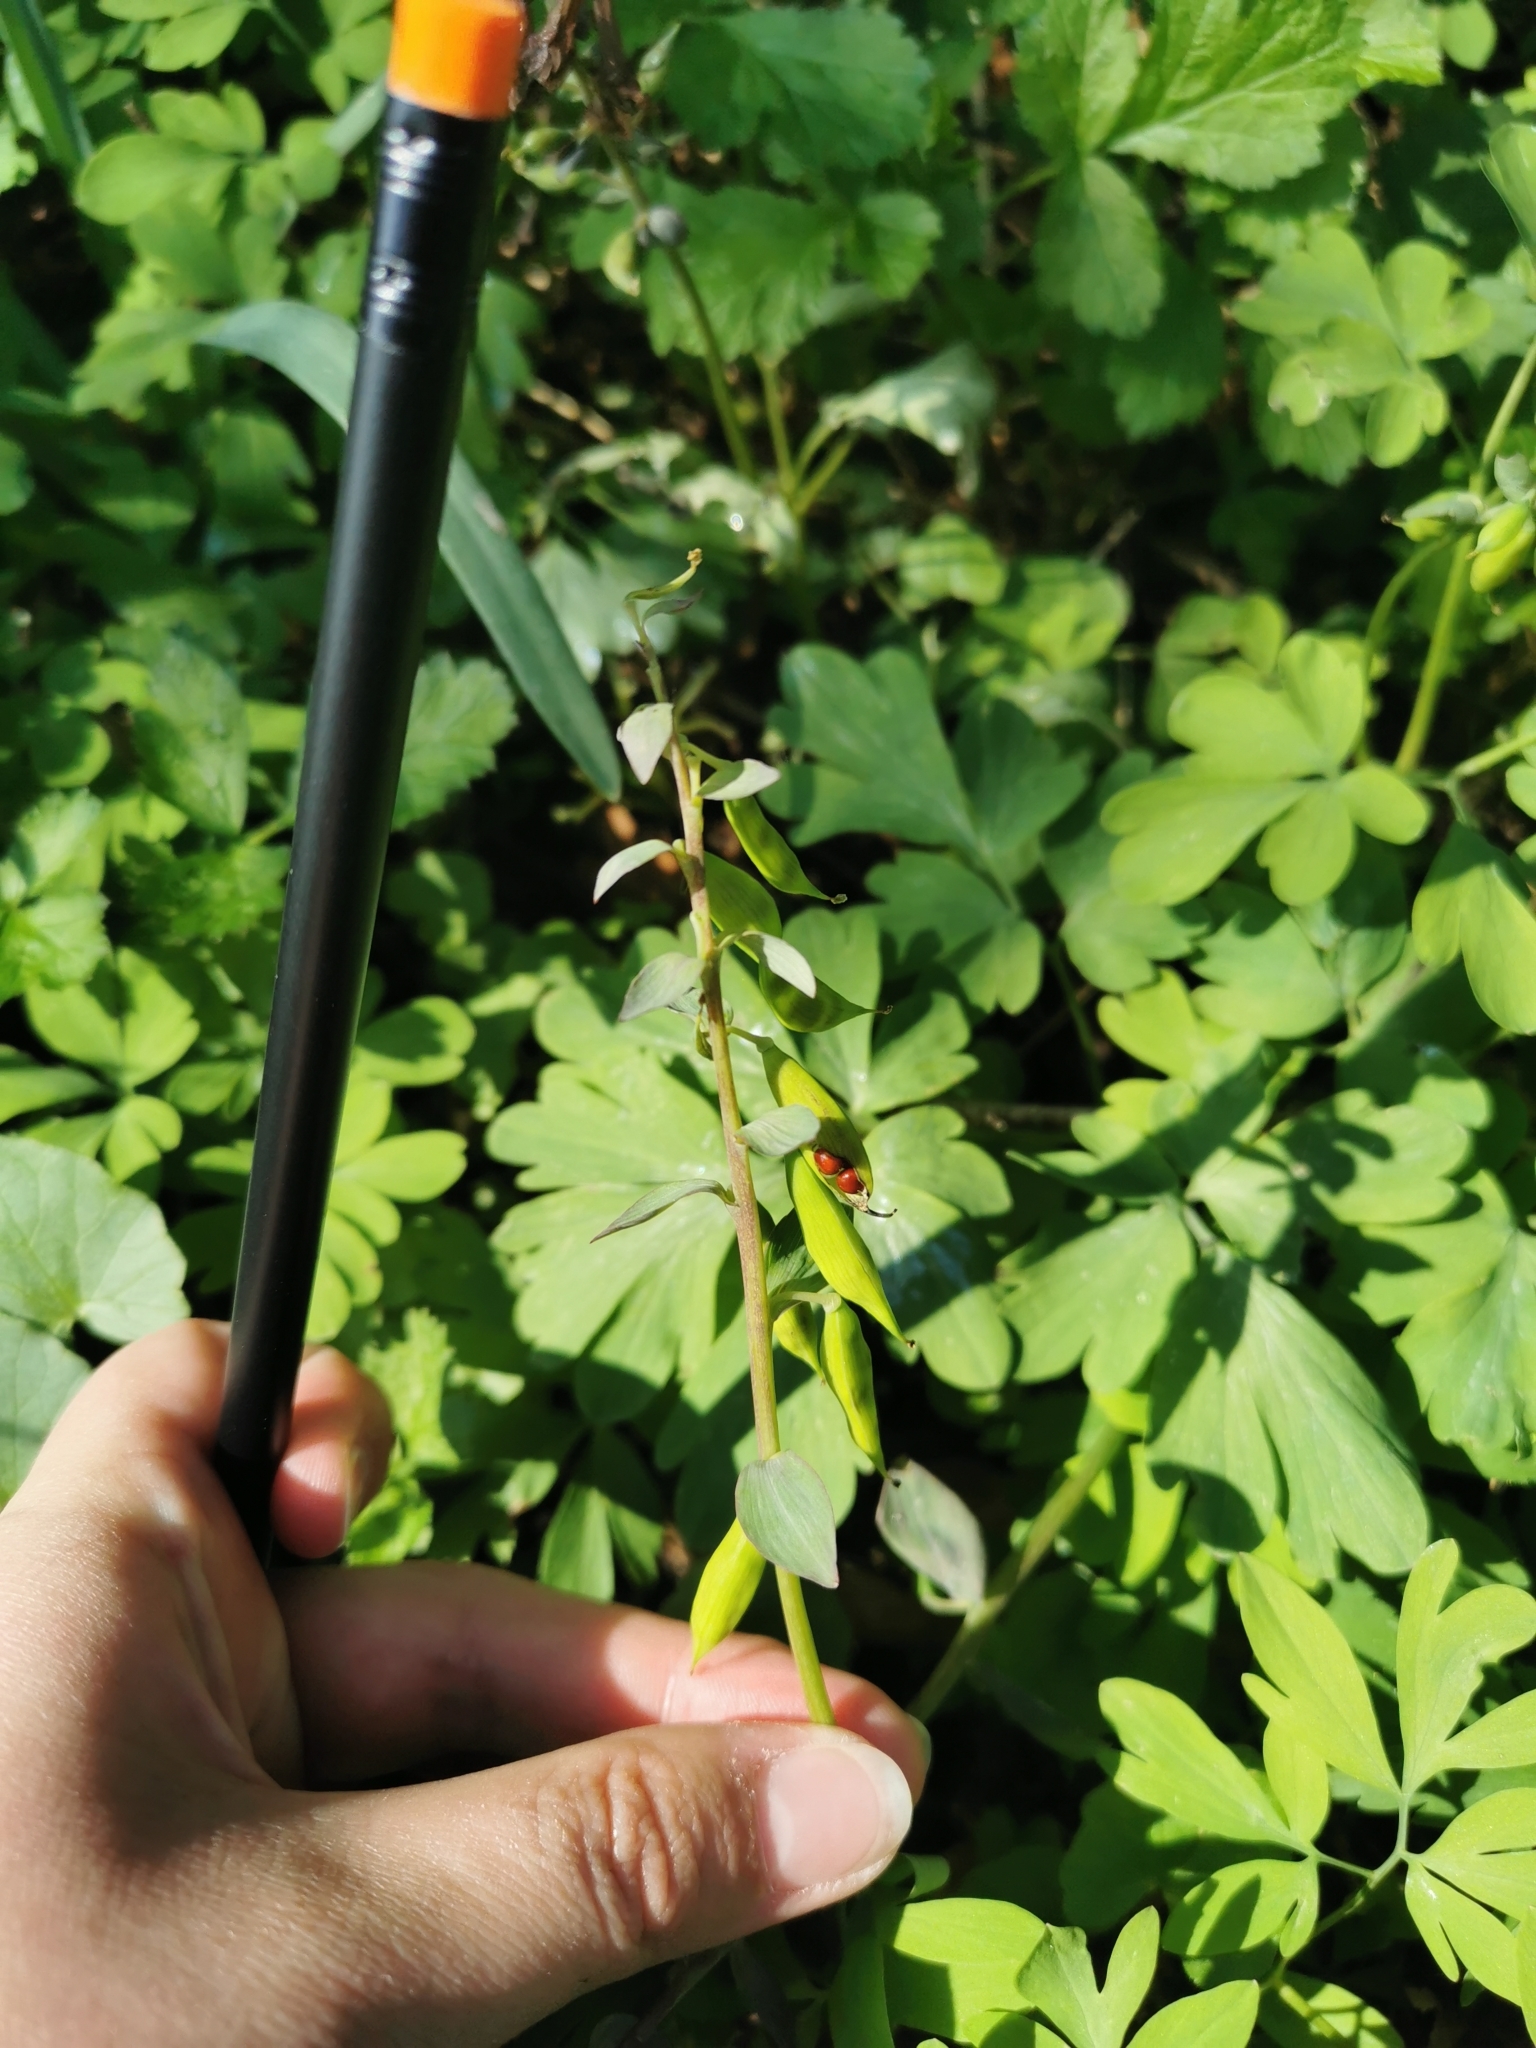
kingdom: Plantae
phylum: Tracheophyta
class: Magnoliopsida
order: Ranunculales
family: Papaveraceae
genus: Corydalis
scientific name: Corydalis cava
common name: Hollowroot
